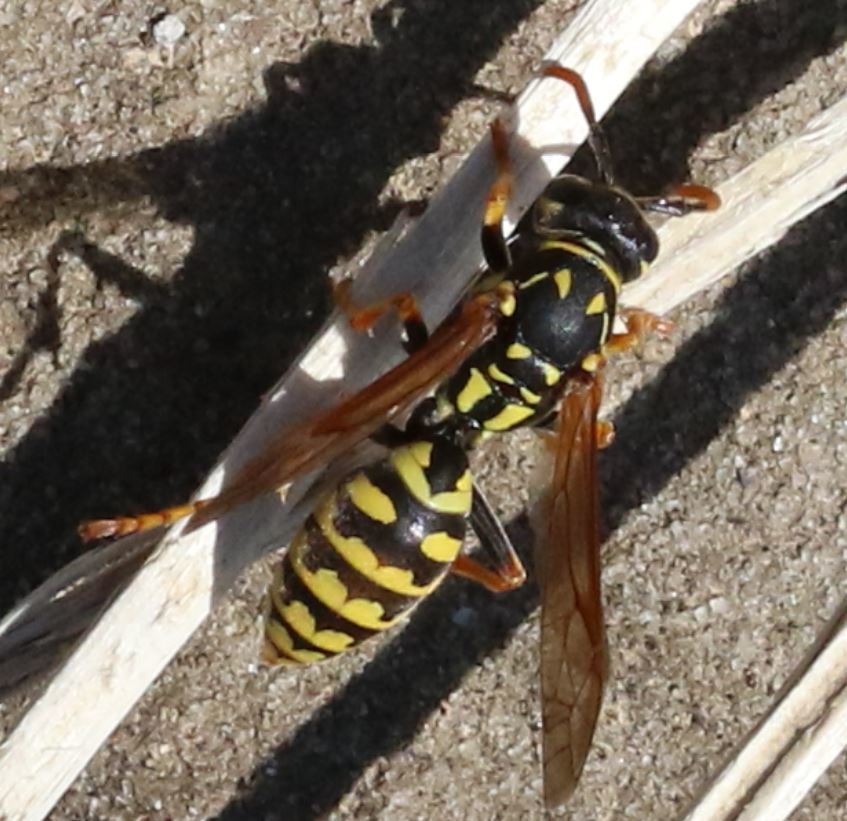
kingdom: Animalia
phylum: Arthropoda
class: Insecta
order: Hymenoptera
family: Eumenidae
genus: Polistes
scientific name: Polistes dominula
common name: Paper wasp
